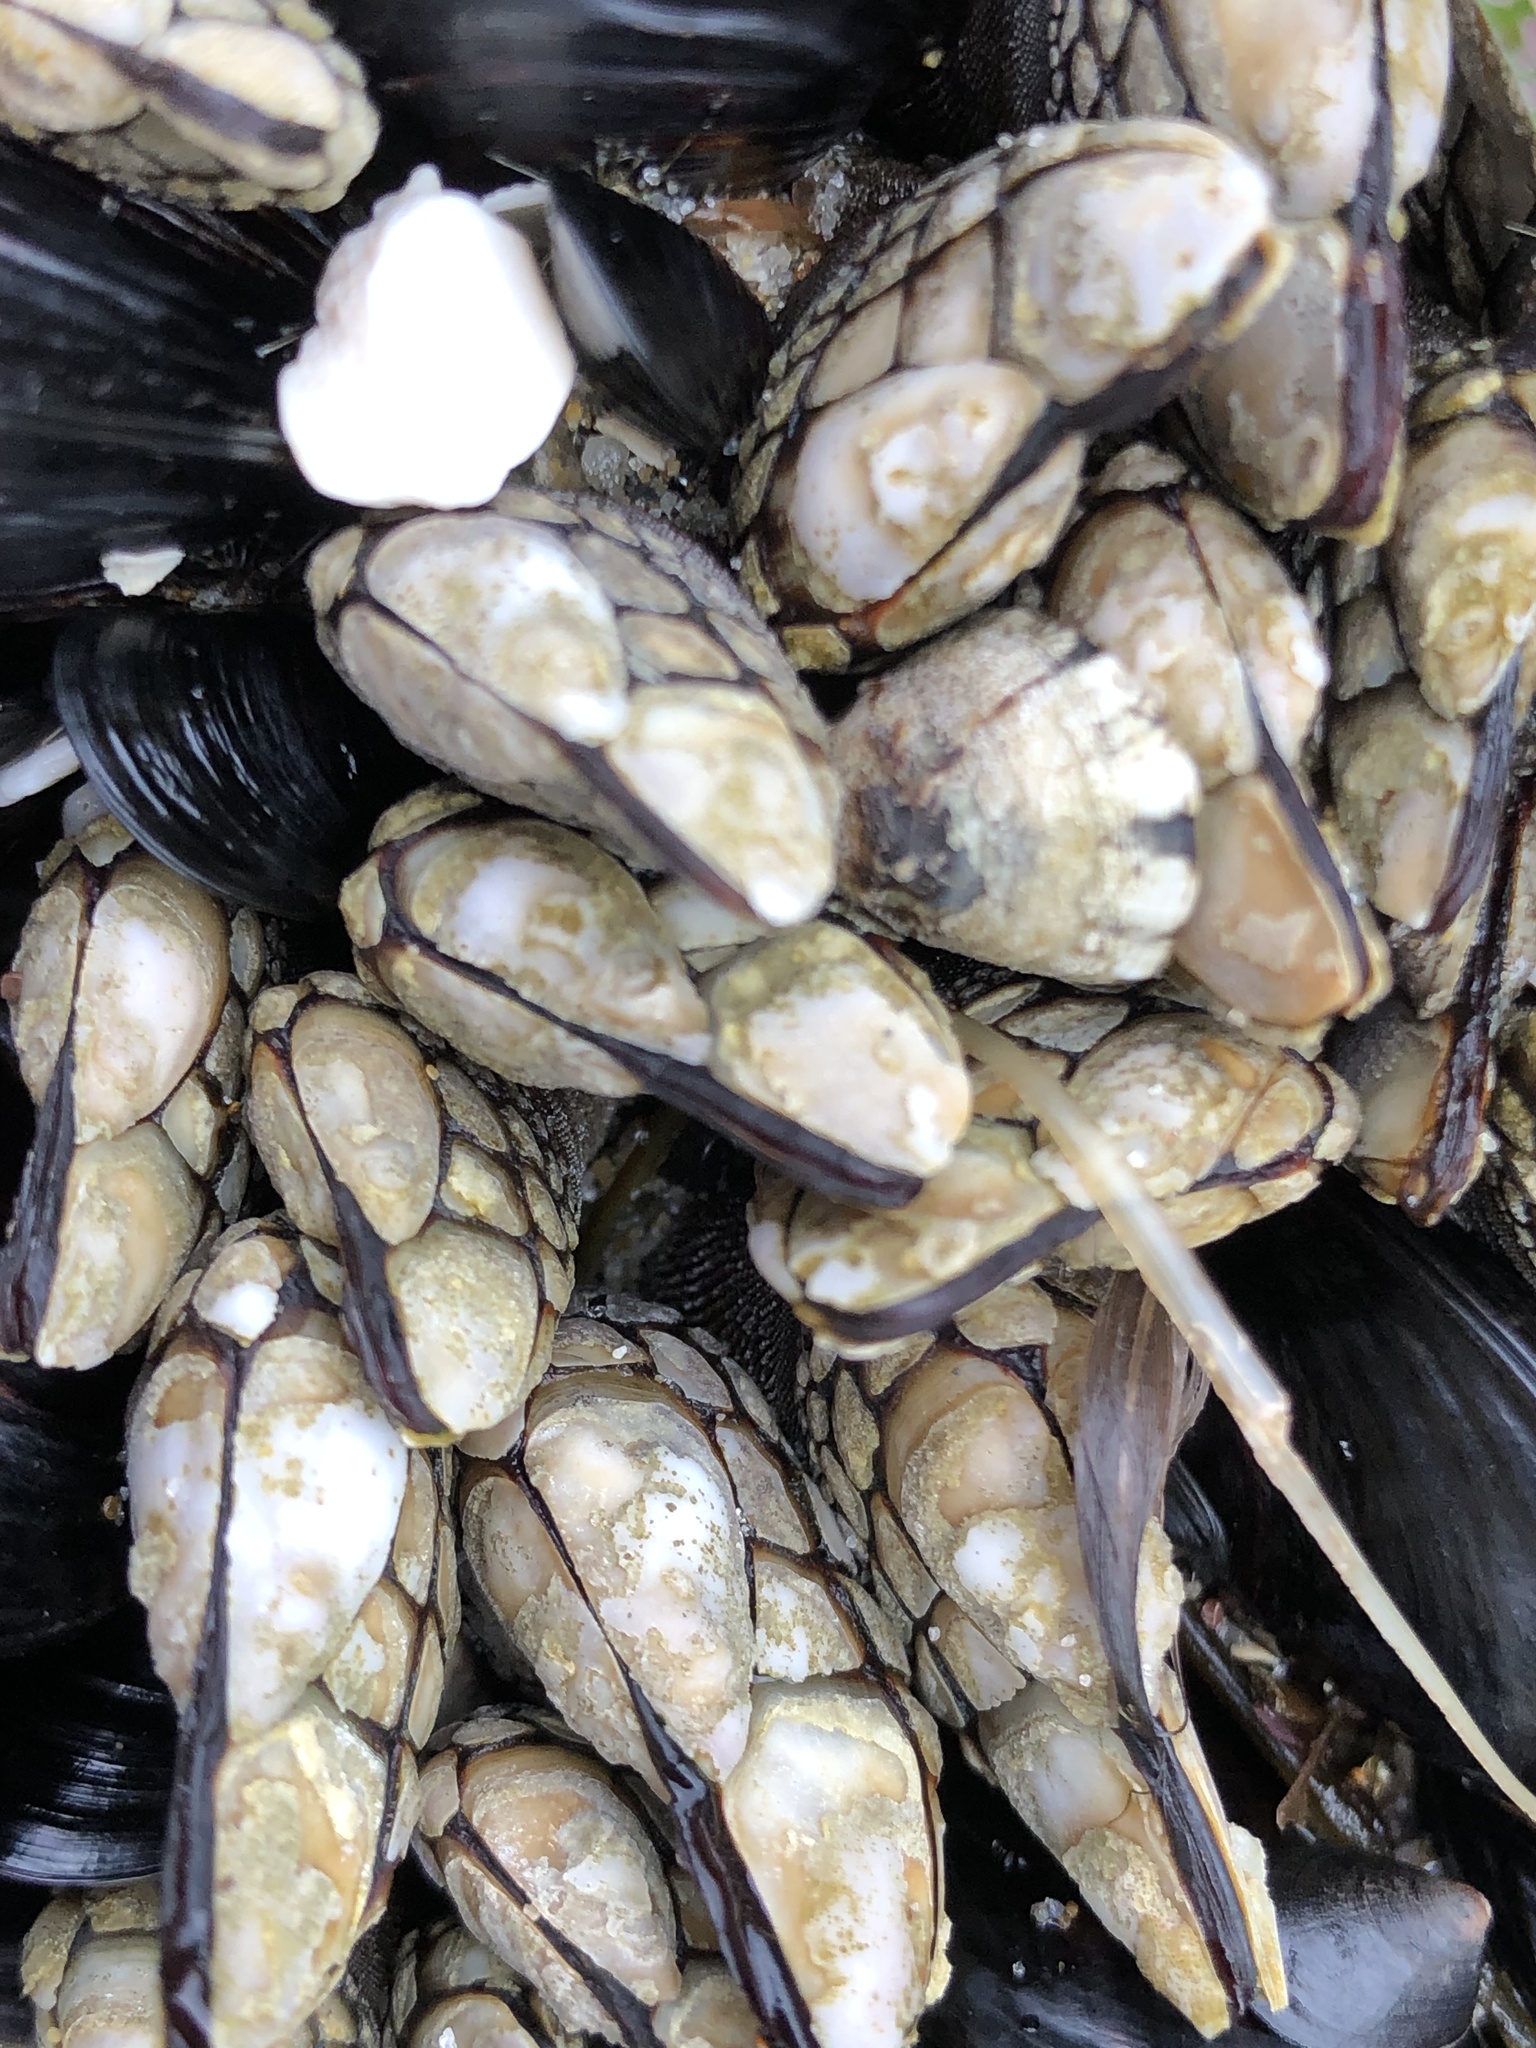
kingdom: Animalia
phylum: Arthropoda
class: Maxillopoda
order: Pedunculata
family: Pollicipedidae
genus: Pollicipes
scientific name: Pollicipes polymerus
